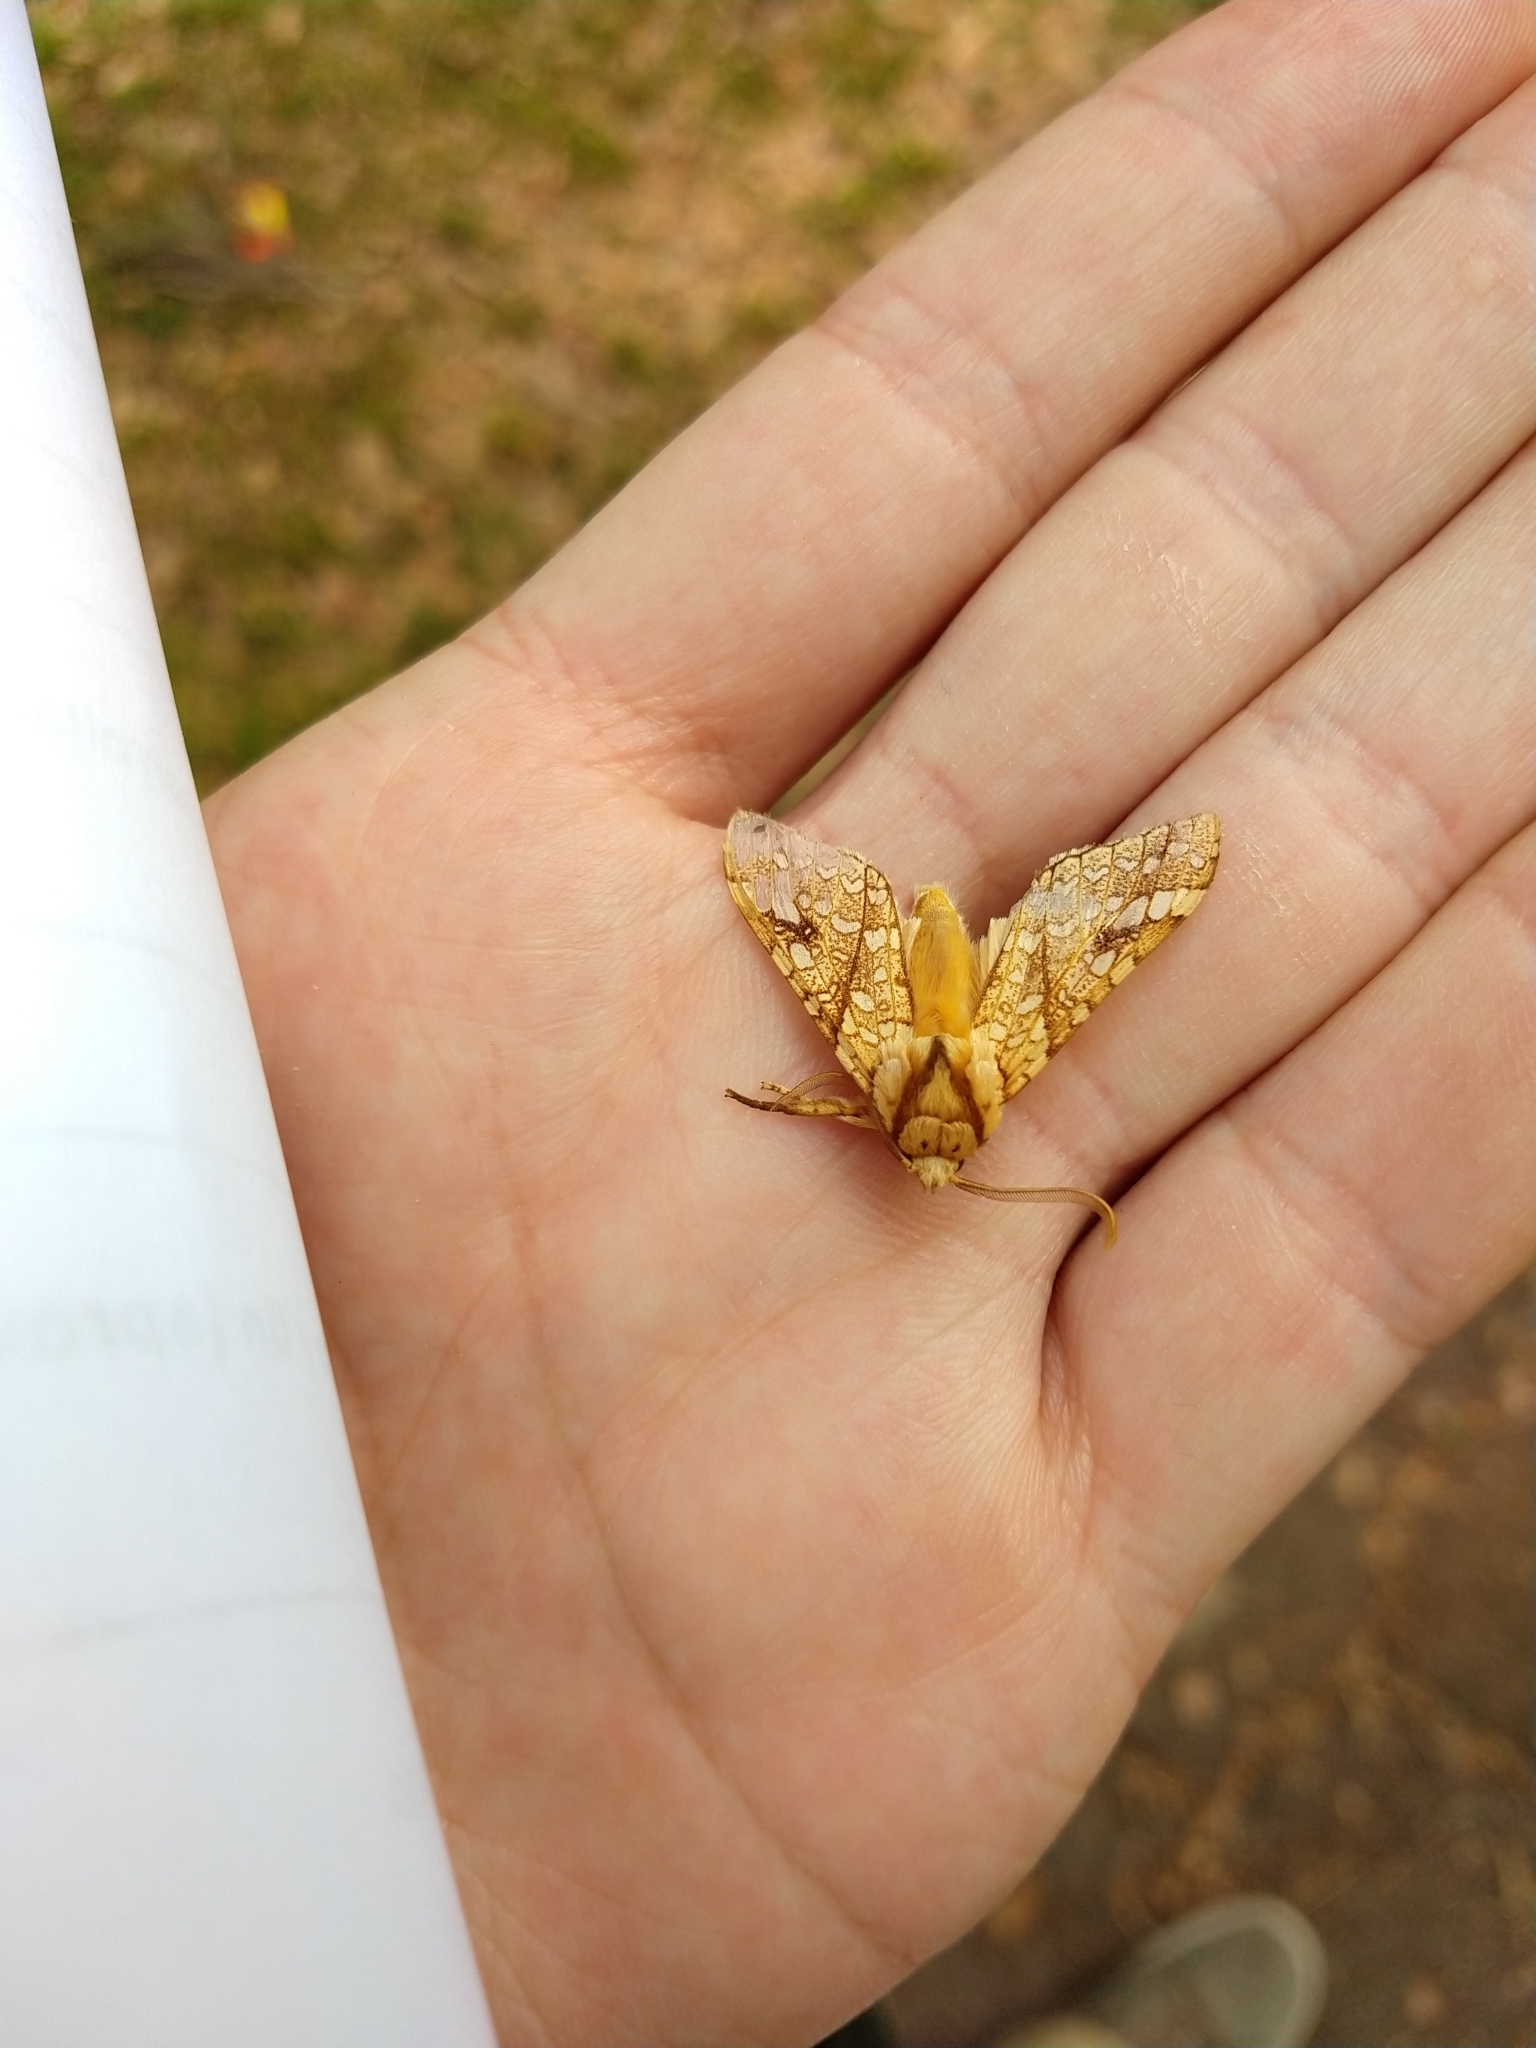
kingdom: Animalia
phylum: Arthropoda
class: Insecta
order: Lepidoptera
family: Erebidae
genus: Lophocampa
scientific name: Lophocampa
